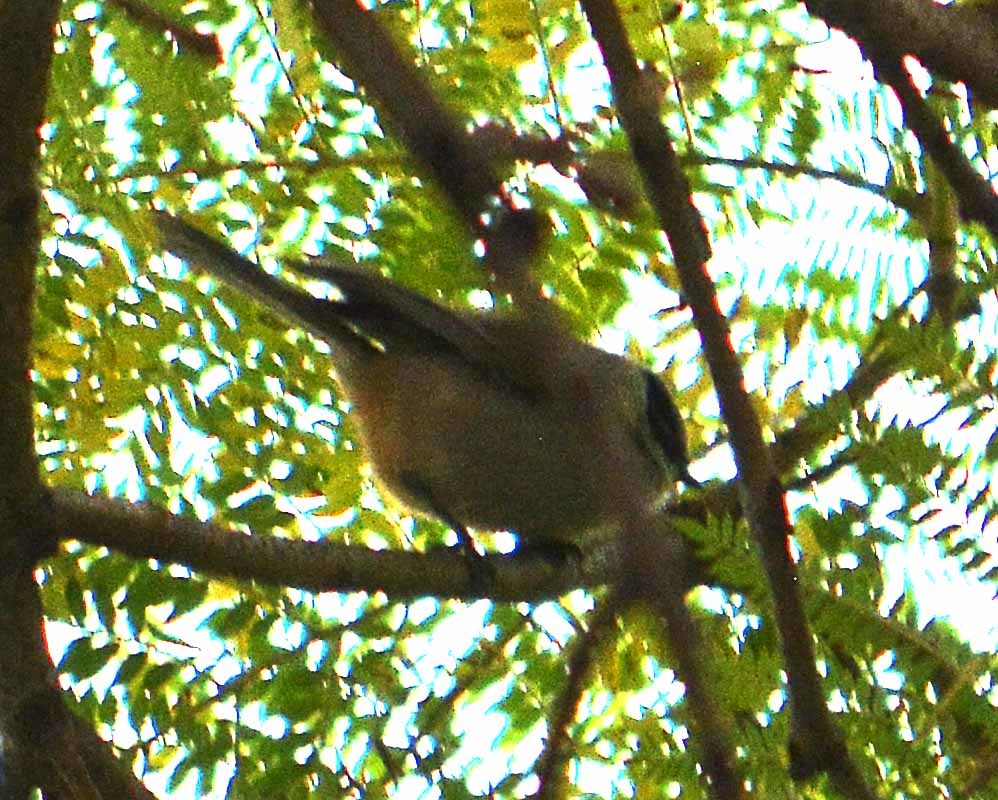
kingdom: Animalia
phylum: Chordata
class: Aves
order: Passeriformes
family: Aegithalidae
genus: Psaltriparus
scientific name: Psaltriparus minimus
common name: American bushtit
